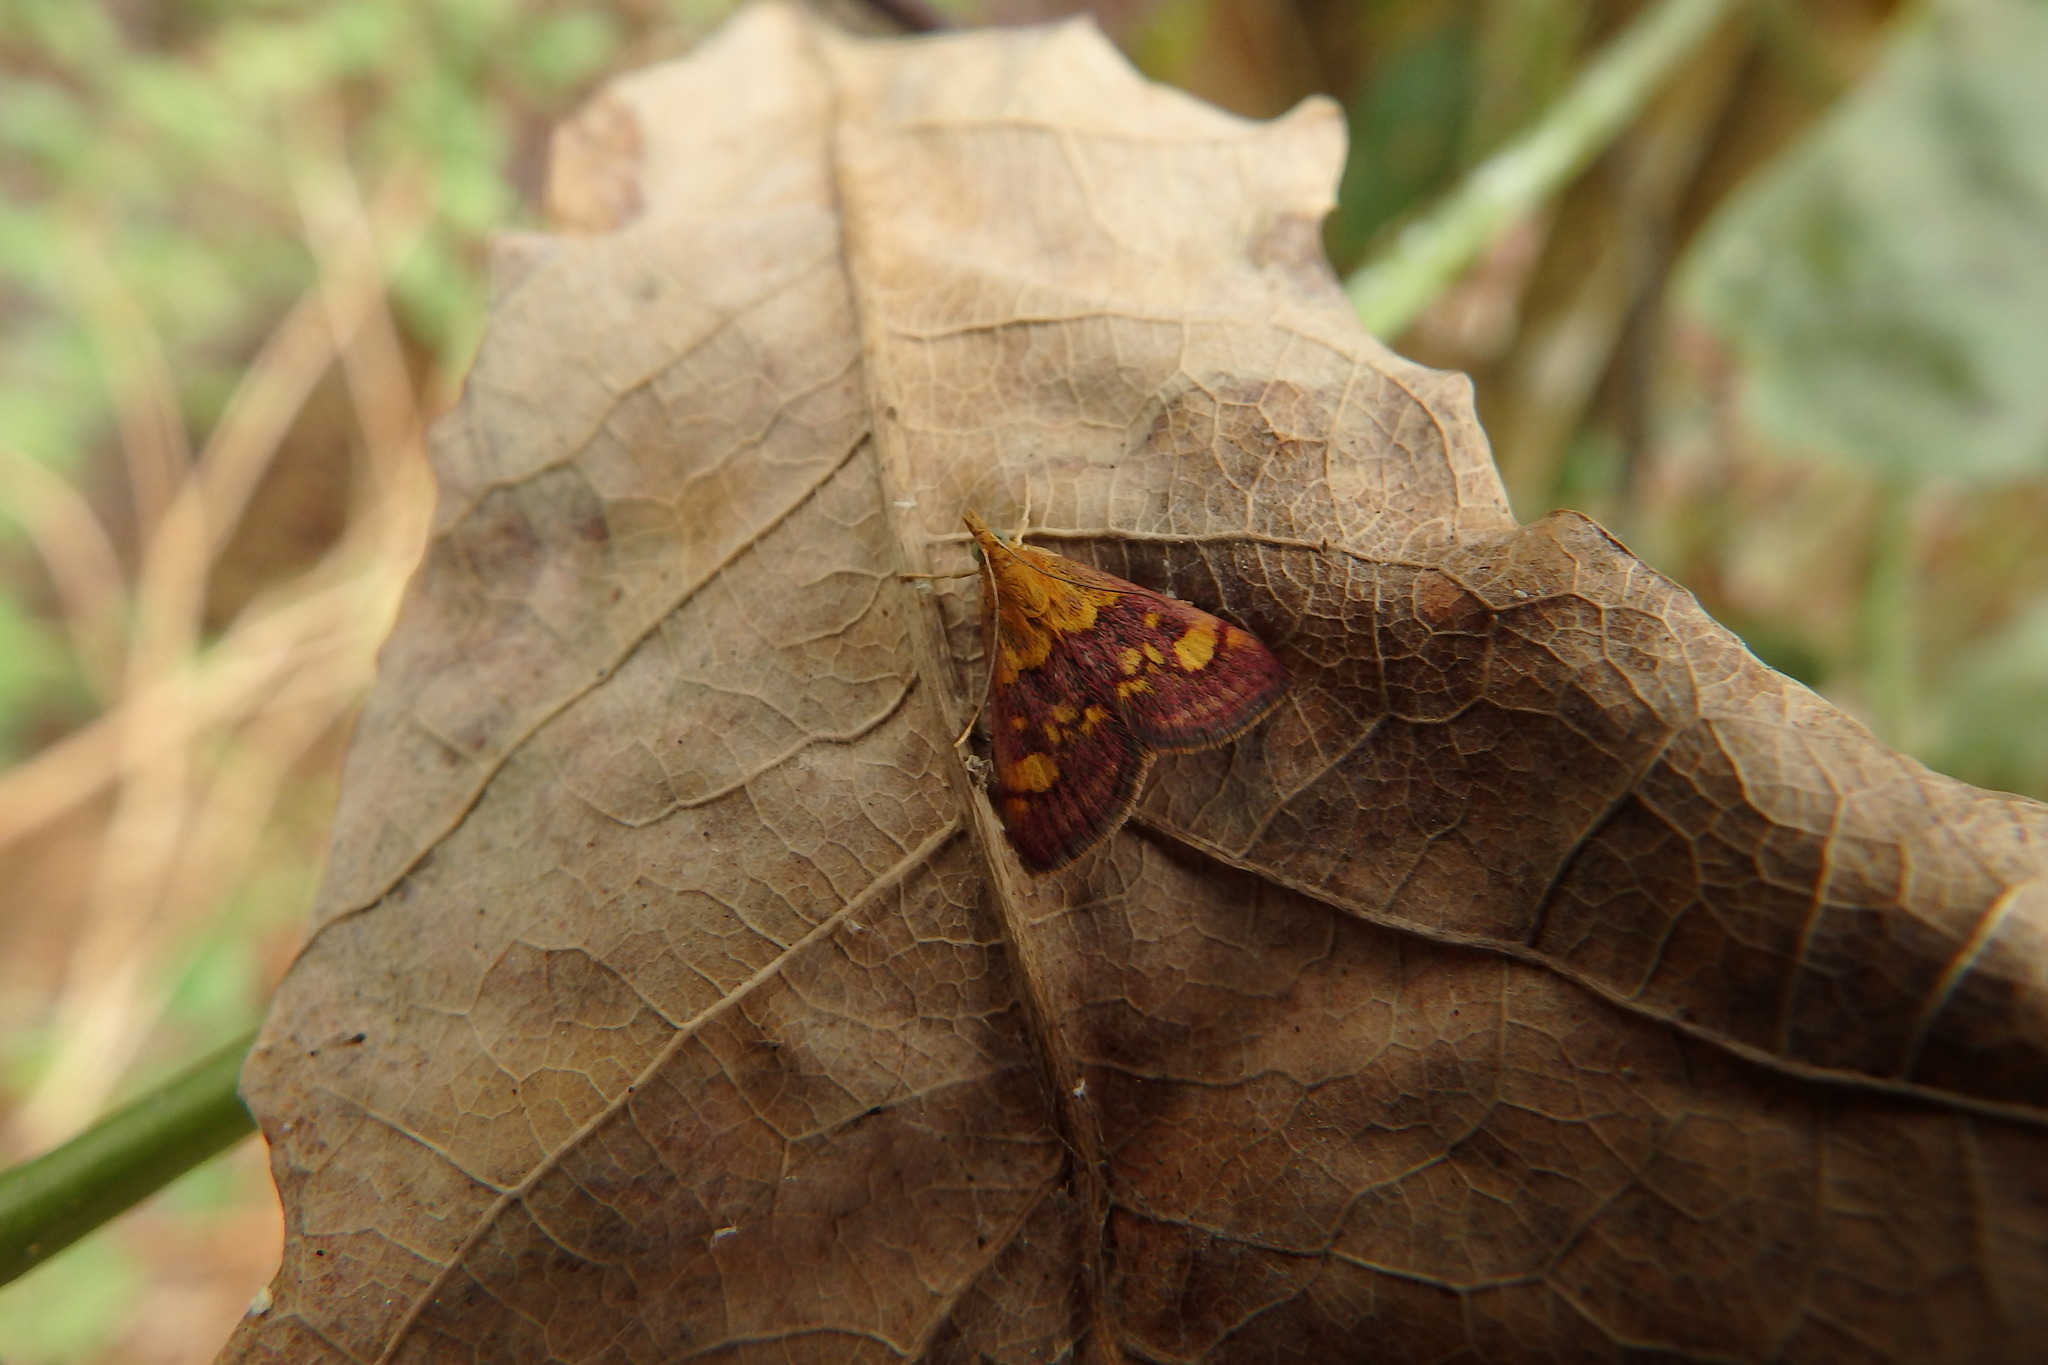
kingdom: Animalia
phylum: Arthropoda
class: Insecta
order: Lepidoptera
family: Crambidae
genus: Pyrausta
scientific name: Pyrausta aurata
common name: Small purple & gold
